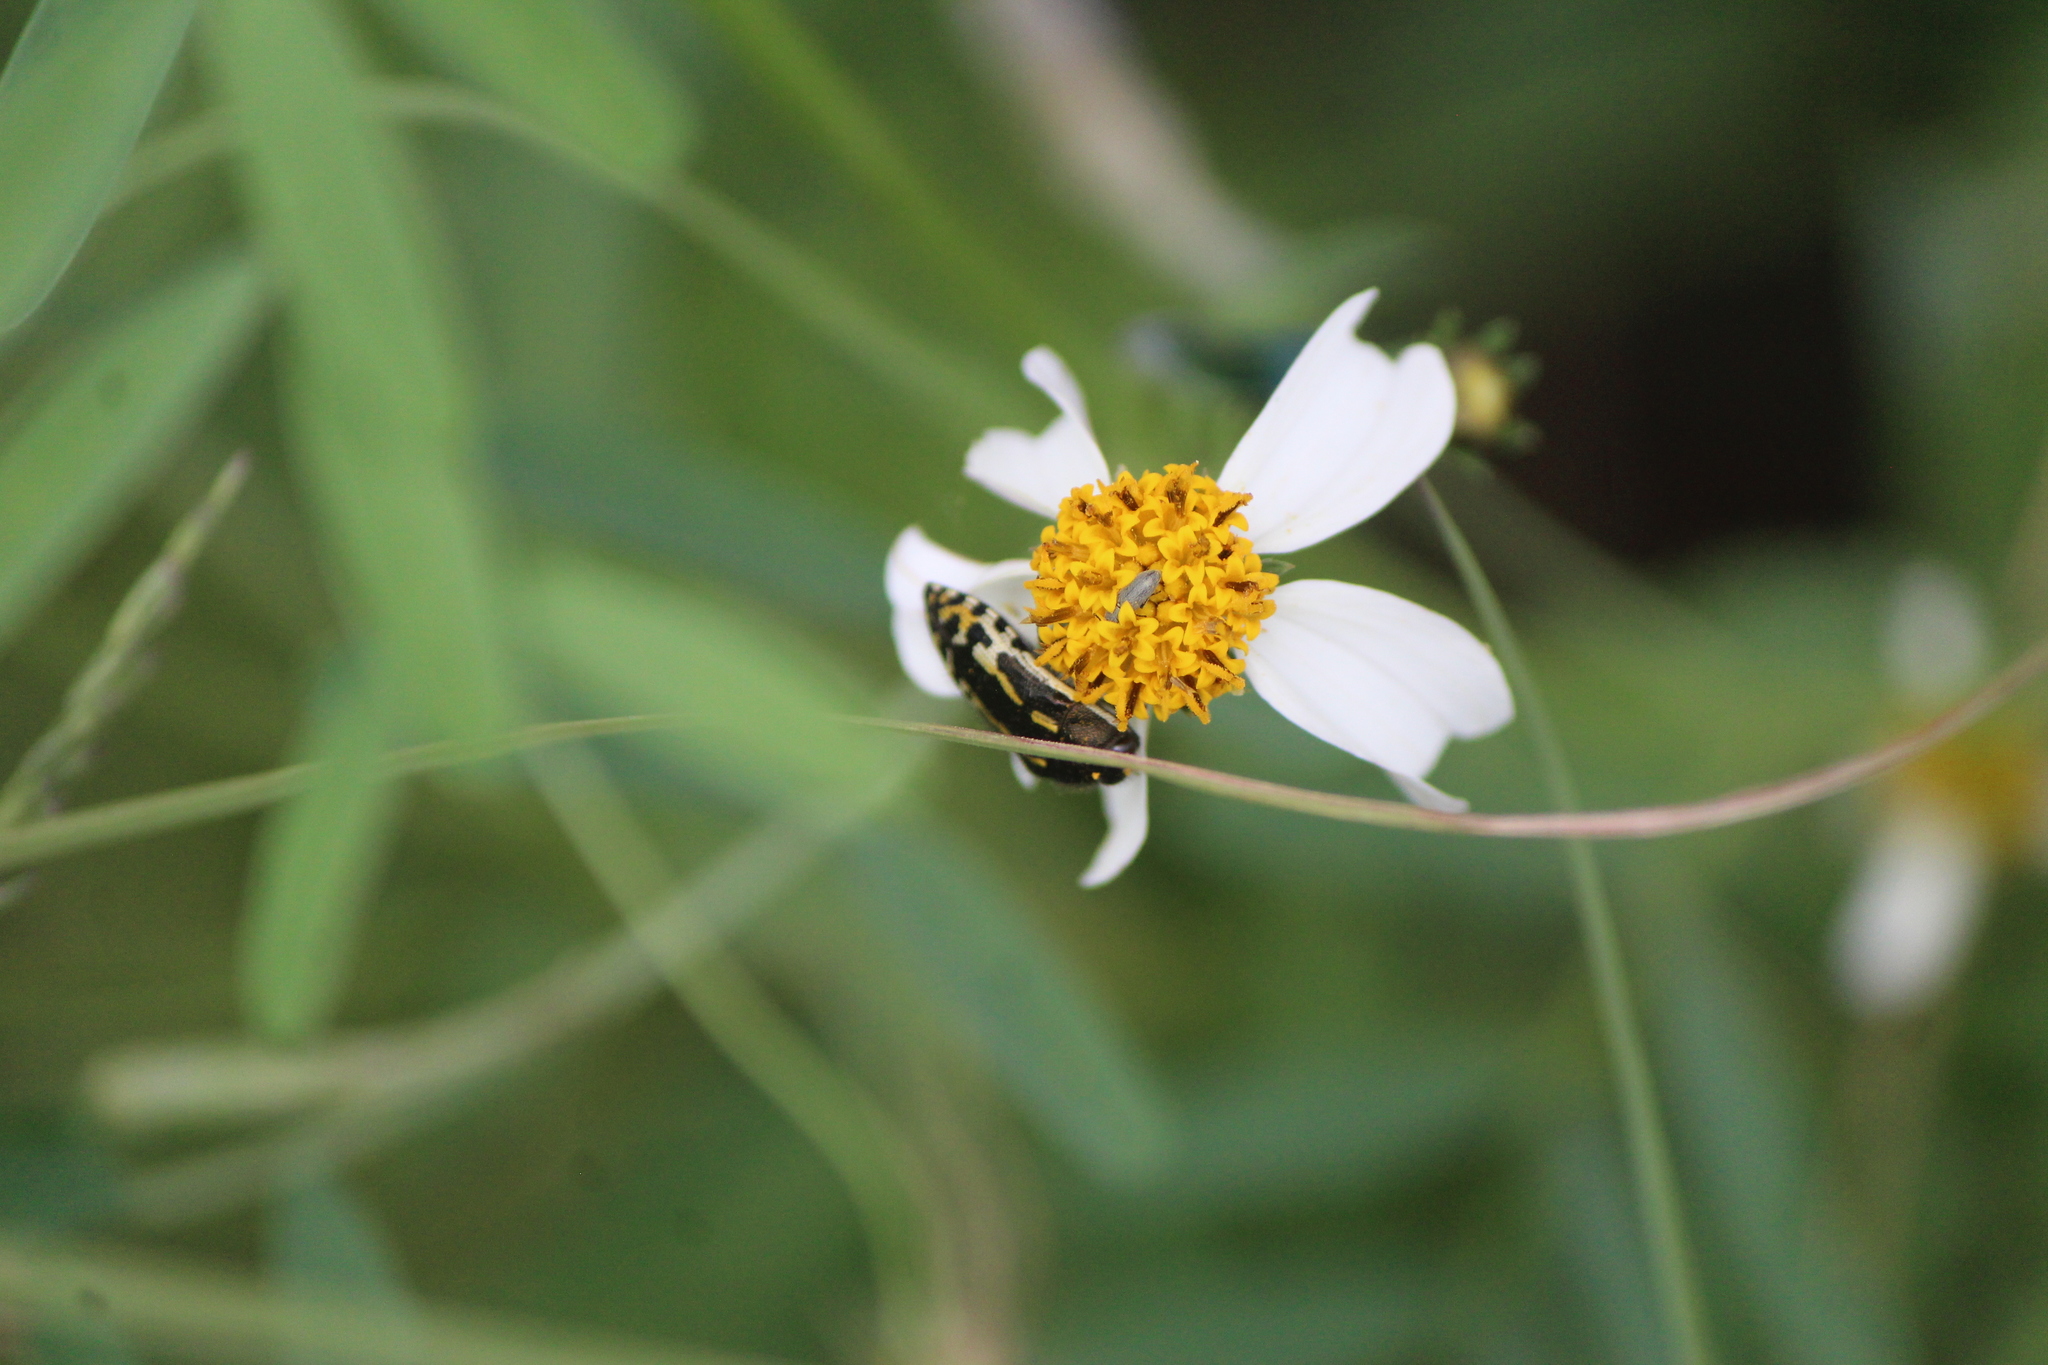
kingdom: Animalia
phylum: Arthropoda
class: Insecta
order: Coleoptera
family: Buprestidae
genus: Acmaeodera
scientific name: Acmaeodera scalaris
